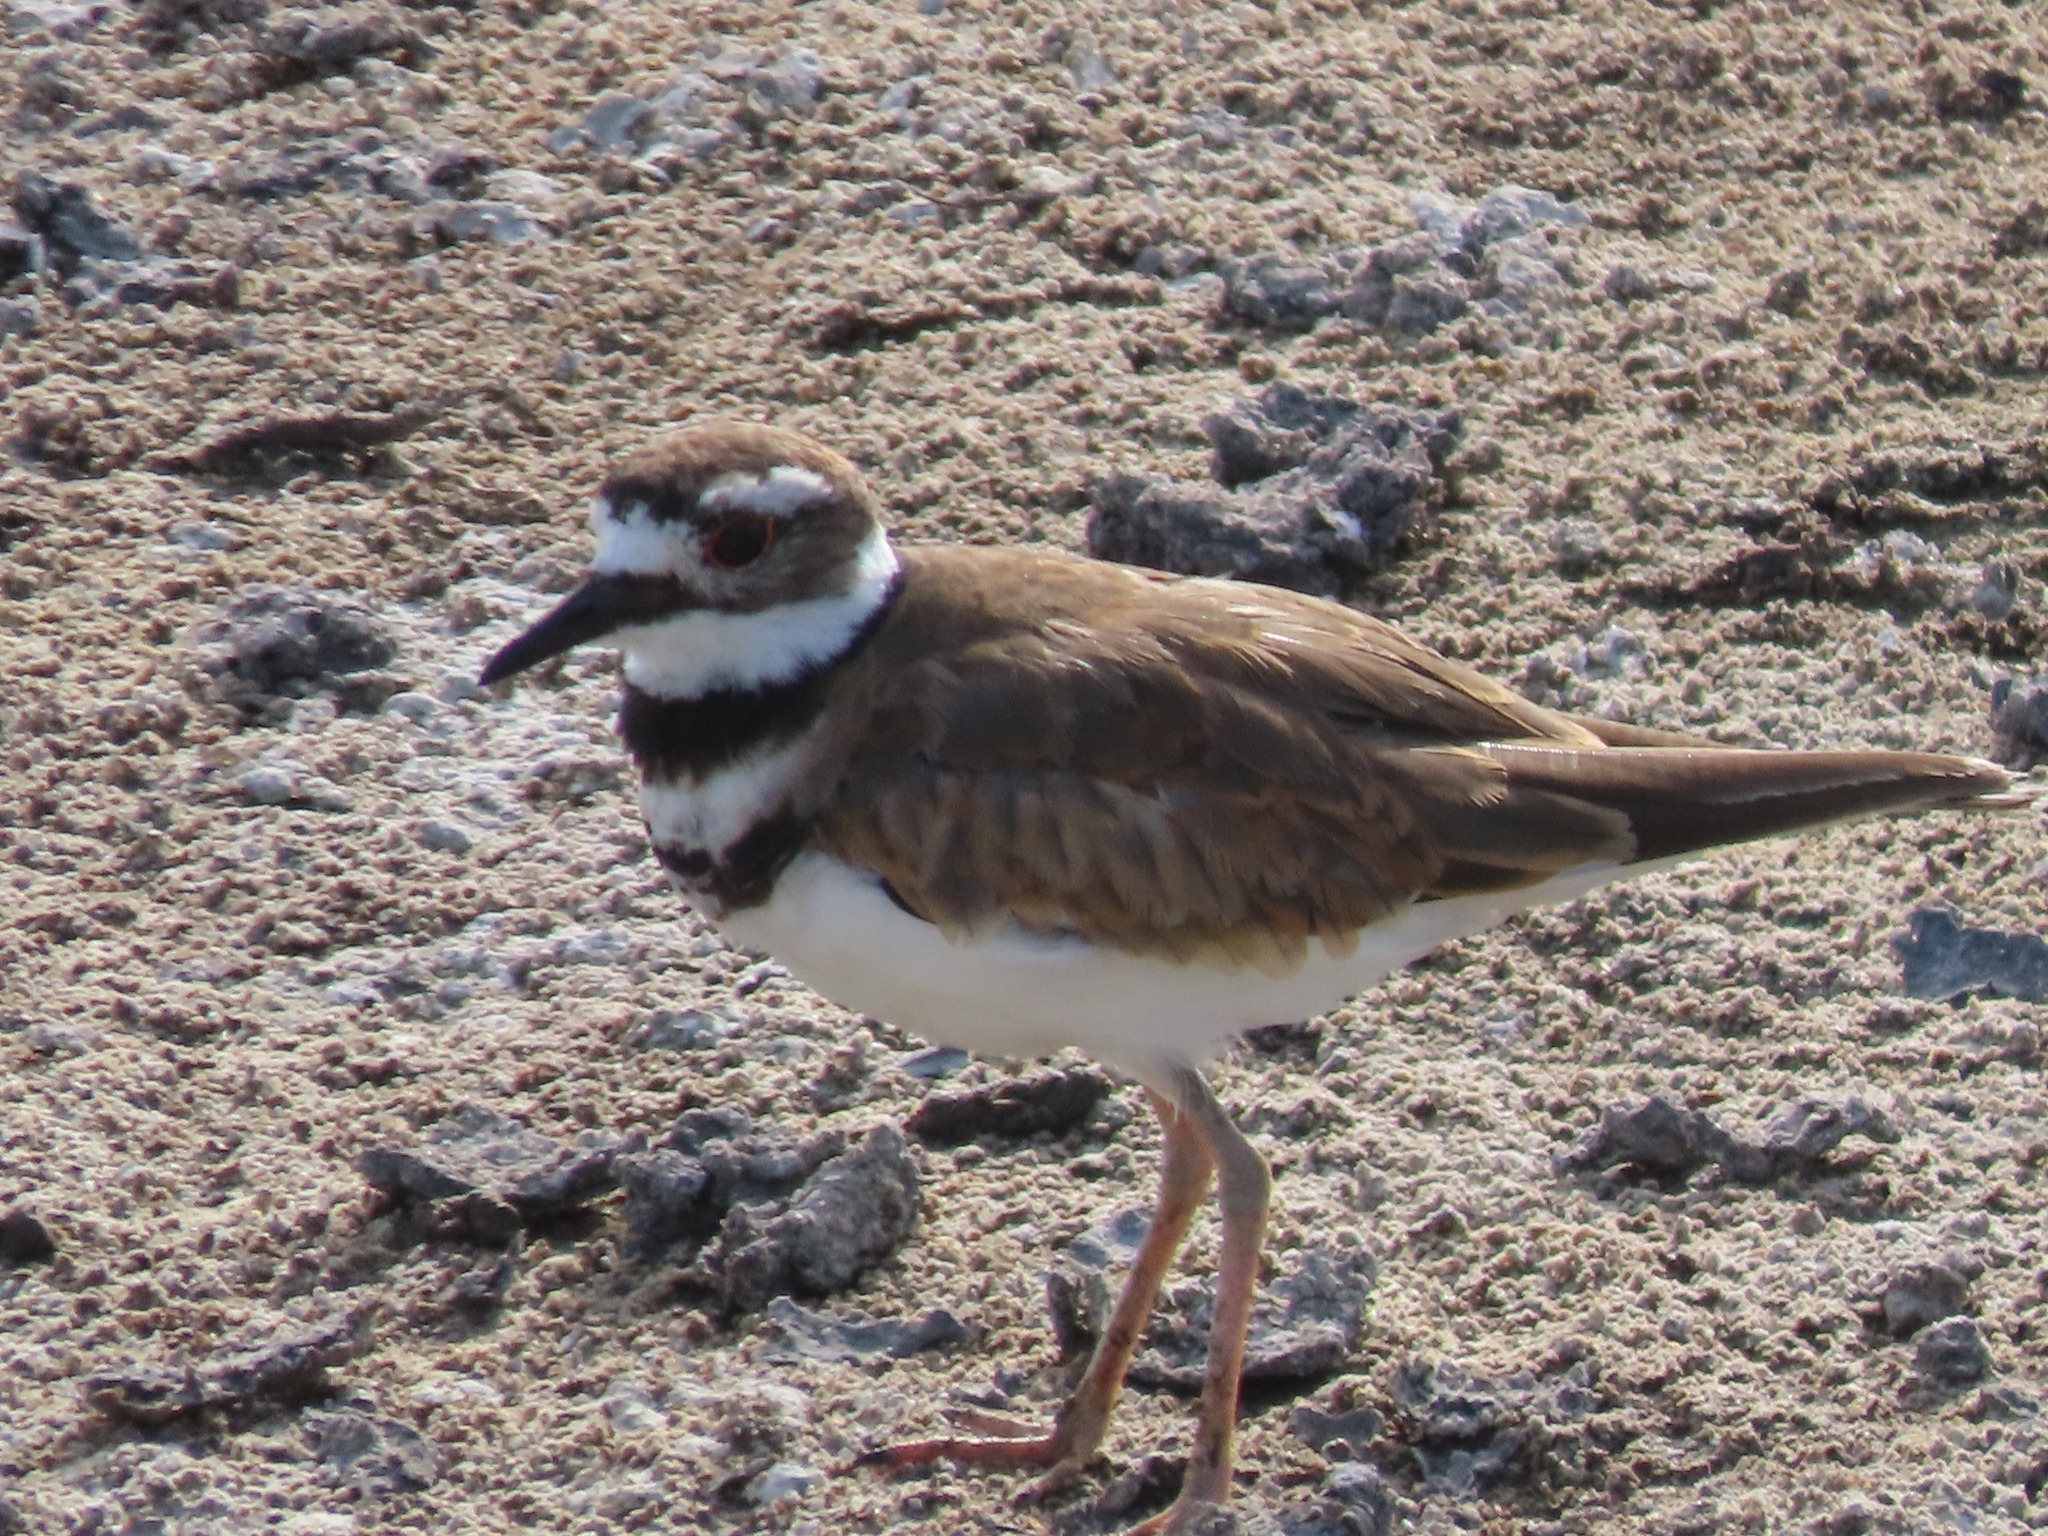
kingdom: Animalia
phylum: Chordata
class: Aves
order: Charadriiformes
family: Charadriidae
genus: Charadrius
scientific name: Charadrius vociferus
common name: Killdeer
